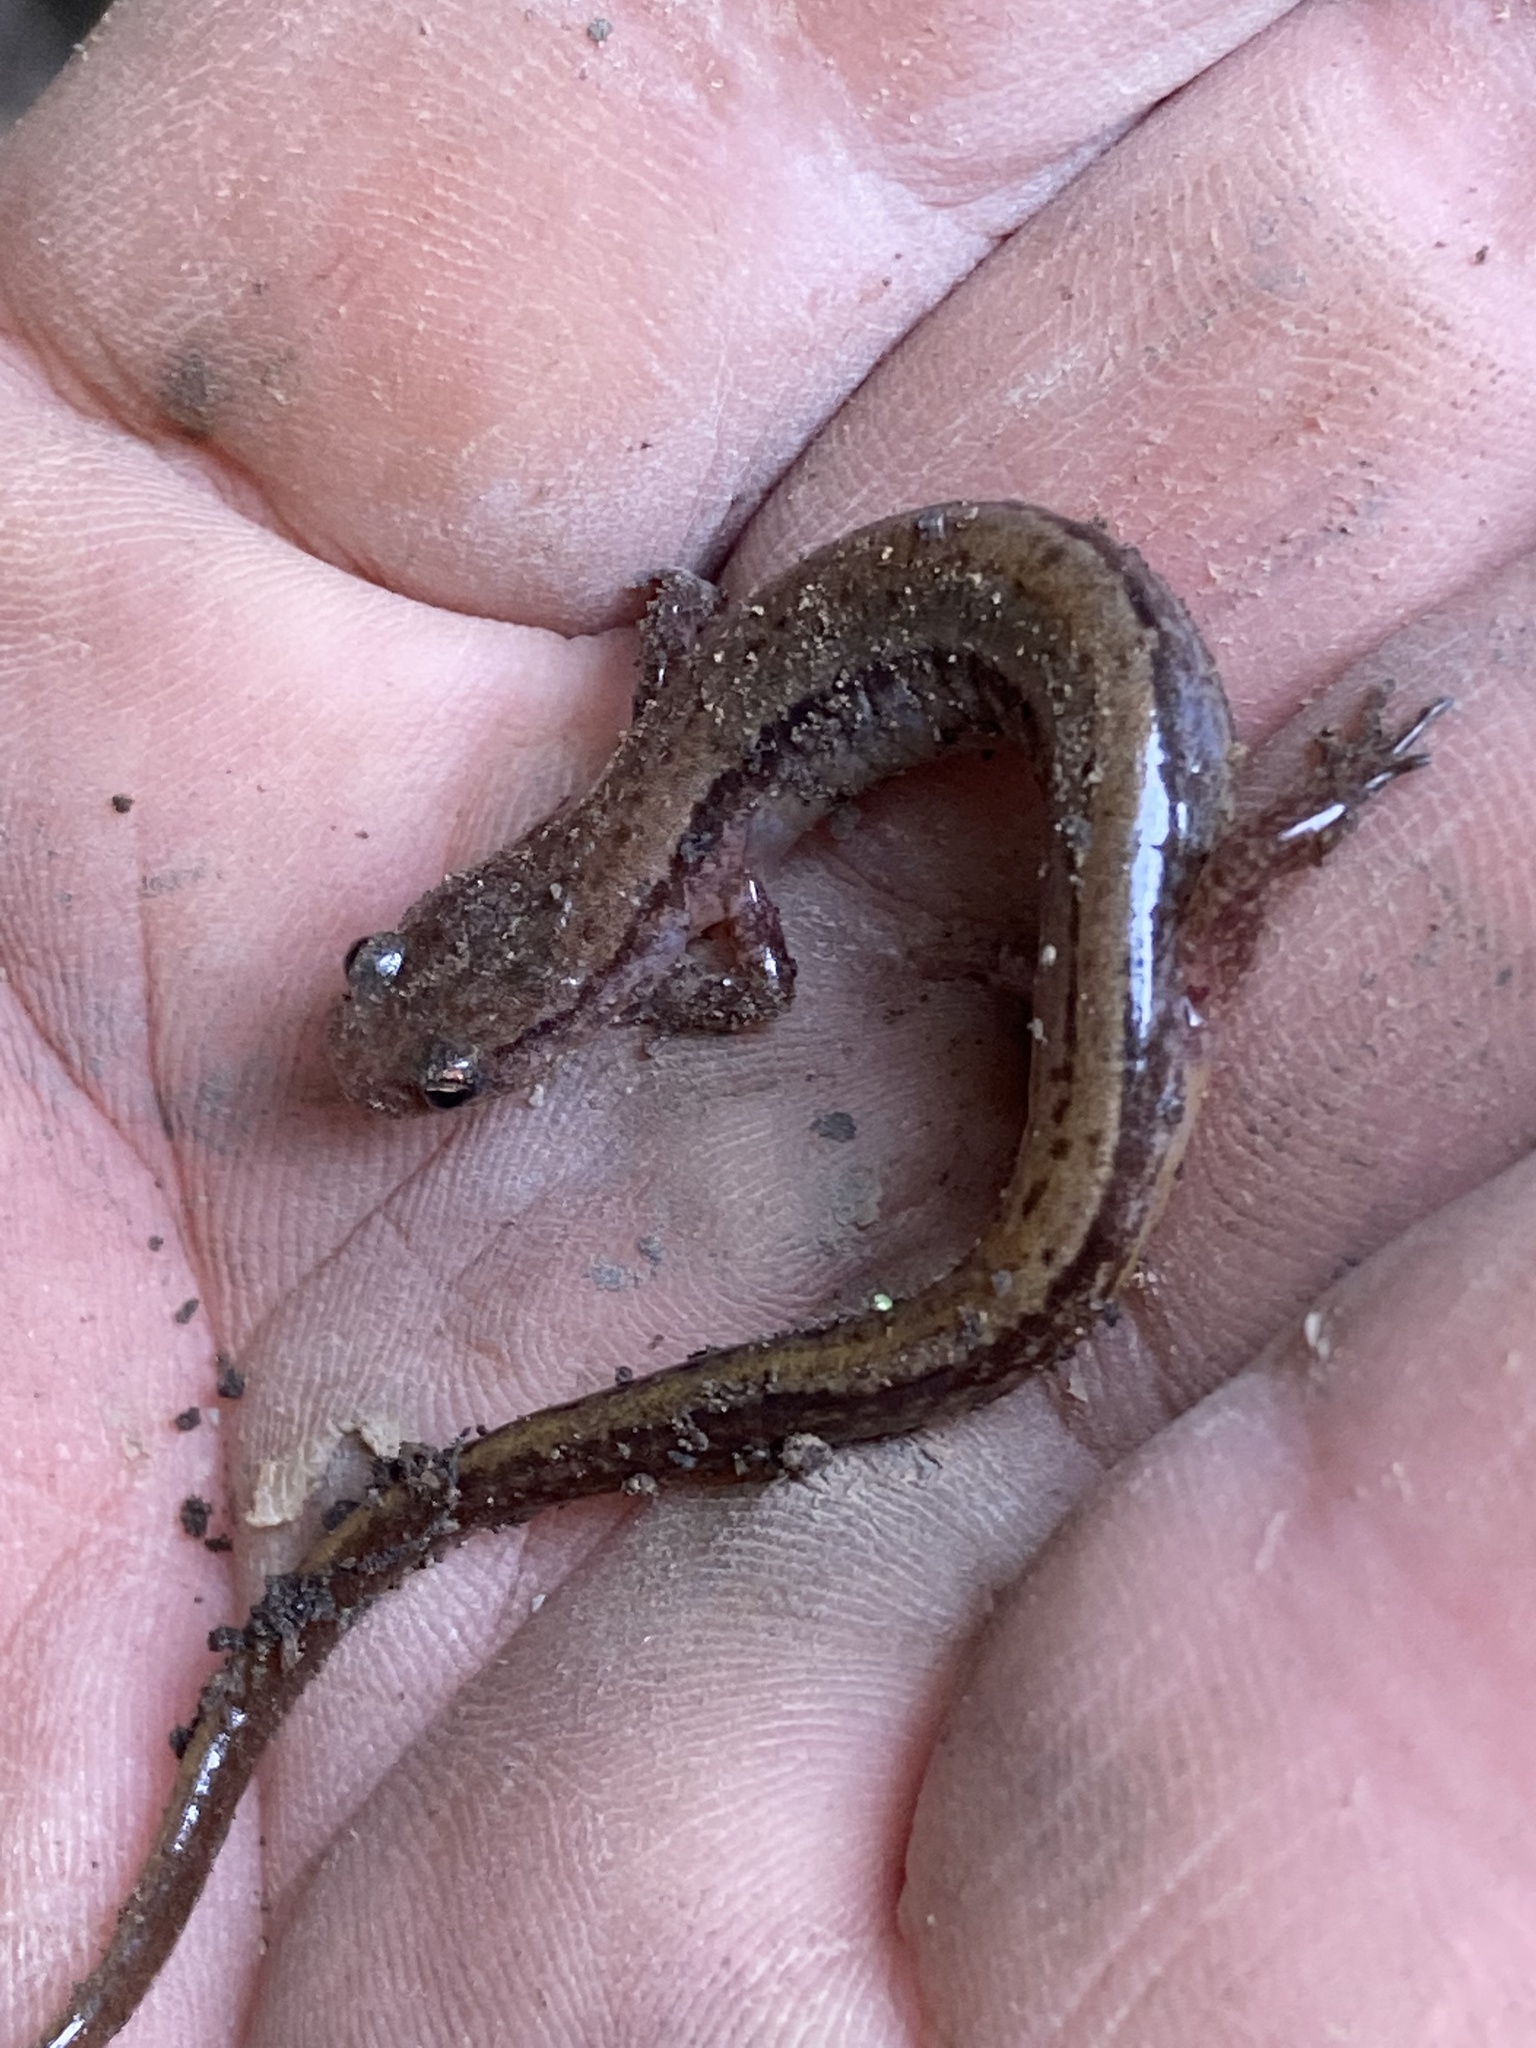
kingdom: Animalia
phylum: Chordata
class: Amphibia
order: Caudata
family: Plethodontidae
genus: Eurycea
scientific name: Eurycea cirrigera
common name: Southern two-lined salamander
